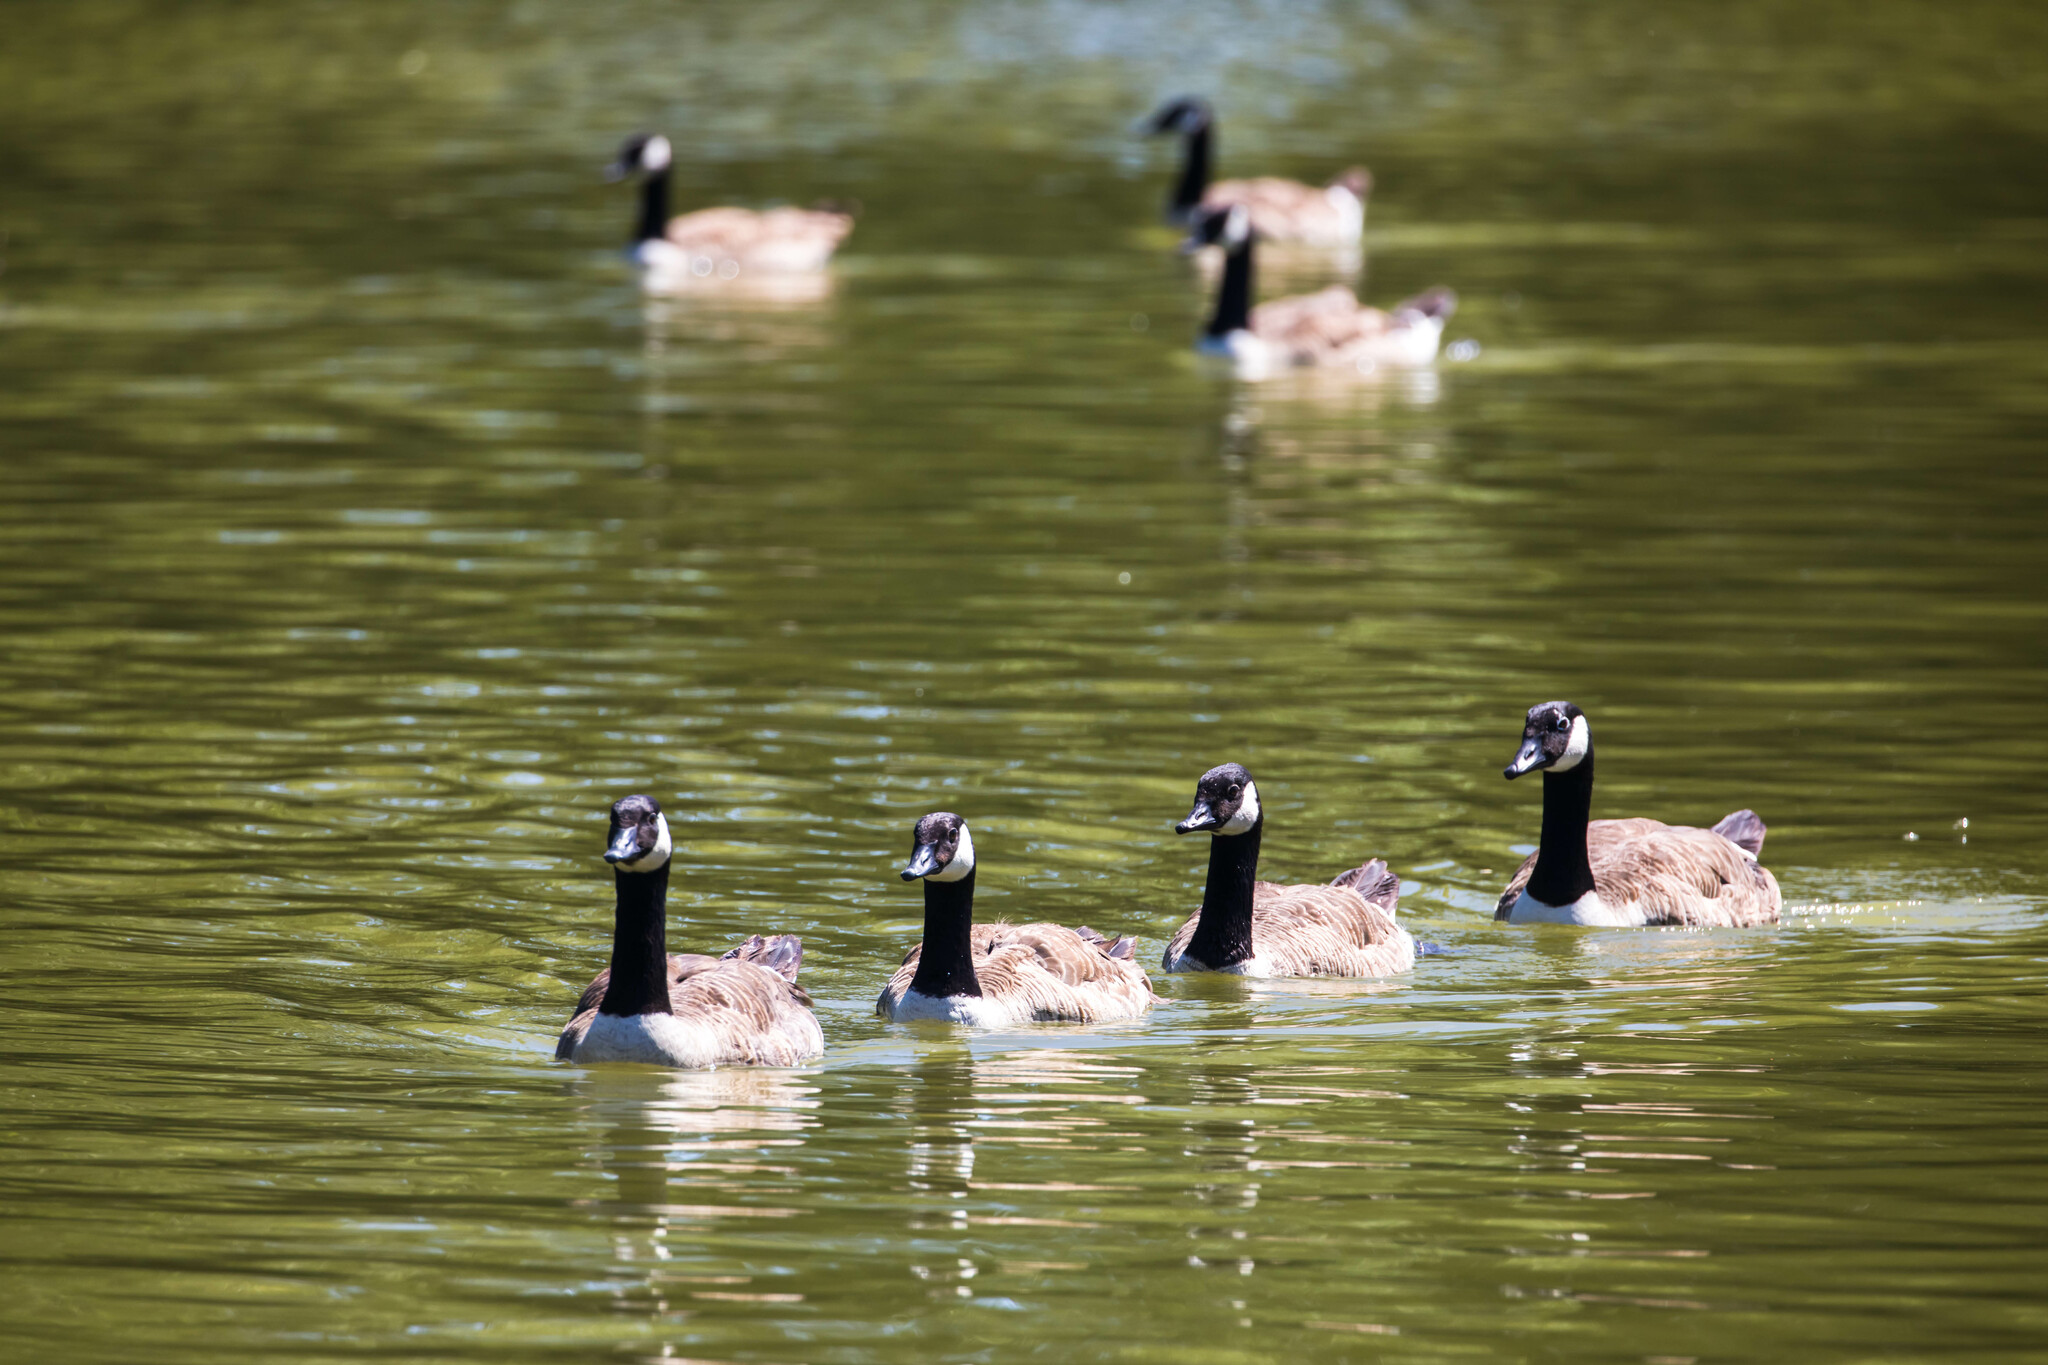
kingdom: Animalia
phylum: Chordata
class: Aves
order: Anseriformes
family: Anatidae
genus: Branta
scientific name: Branta canadensis
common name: Canada goose
